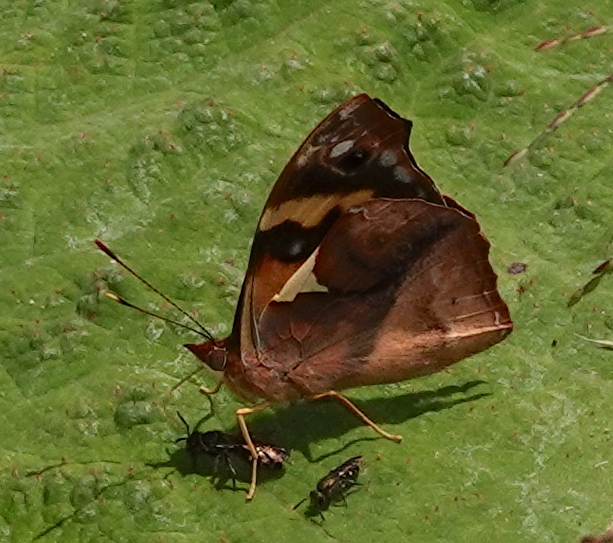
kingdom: Animalia
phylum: Arthropoda
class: Insecta
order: Lepidoptera
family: Nymphalidae
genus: Epiphile
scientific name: Epiphile epimenes
